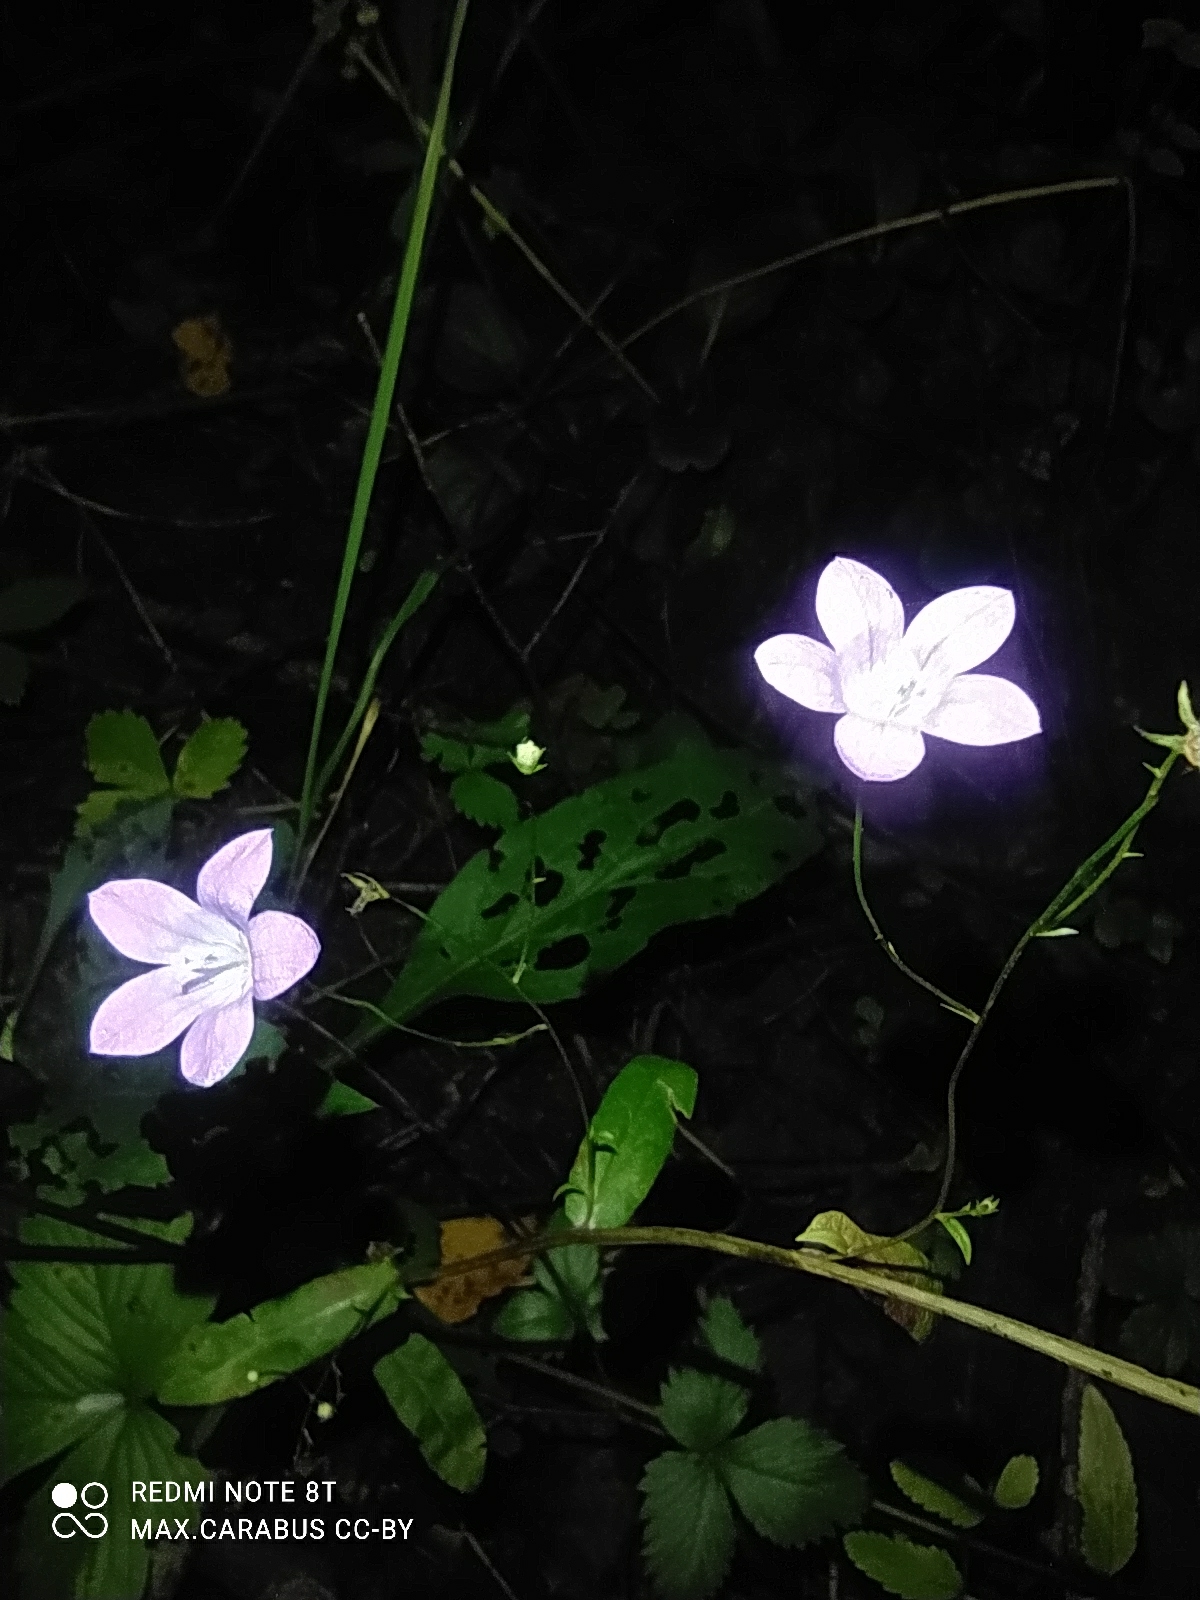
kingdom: Plantae
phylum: Tracheophyta
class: Magnoliopsida
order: Asterales
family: Campanulaceae
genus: Campanula
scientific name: Campanula patula
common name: Spreading bellflower
